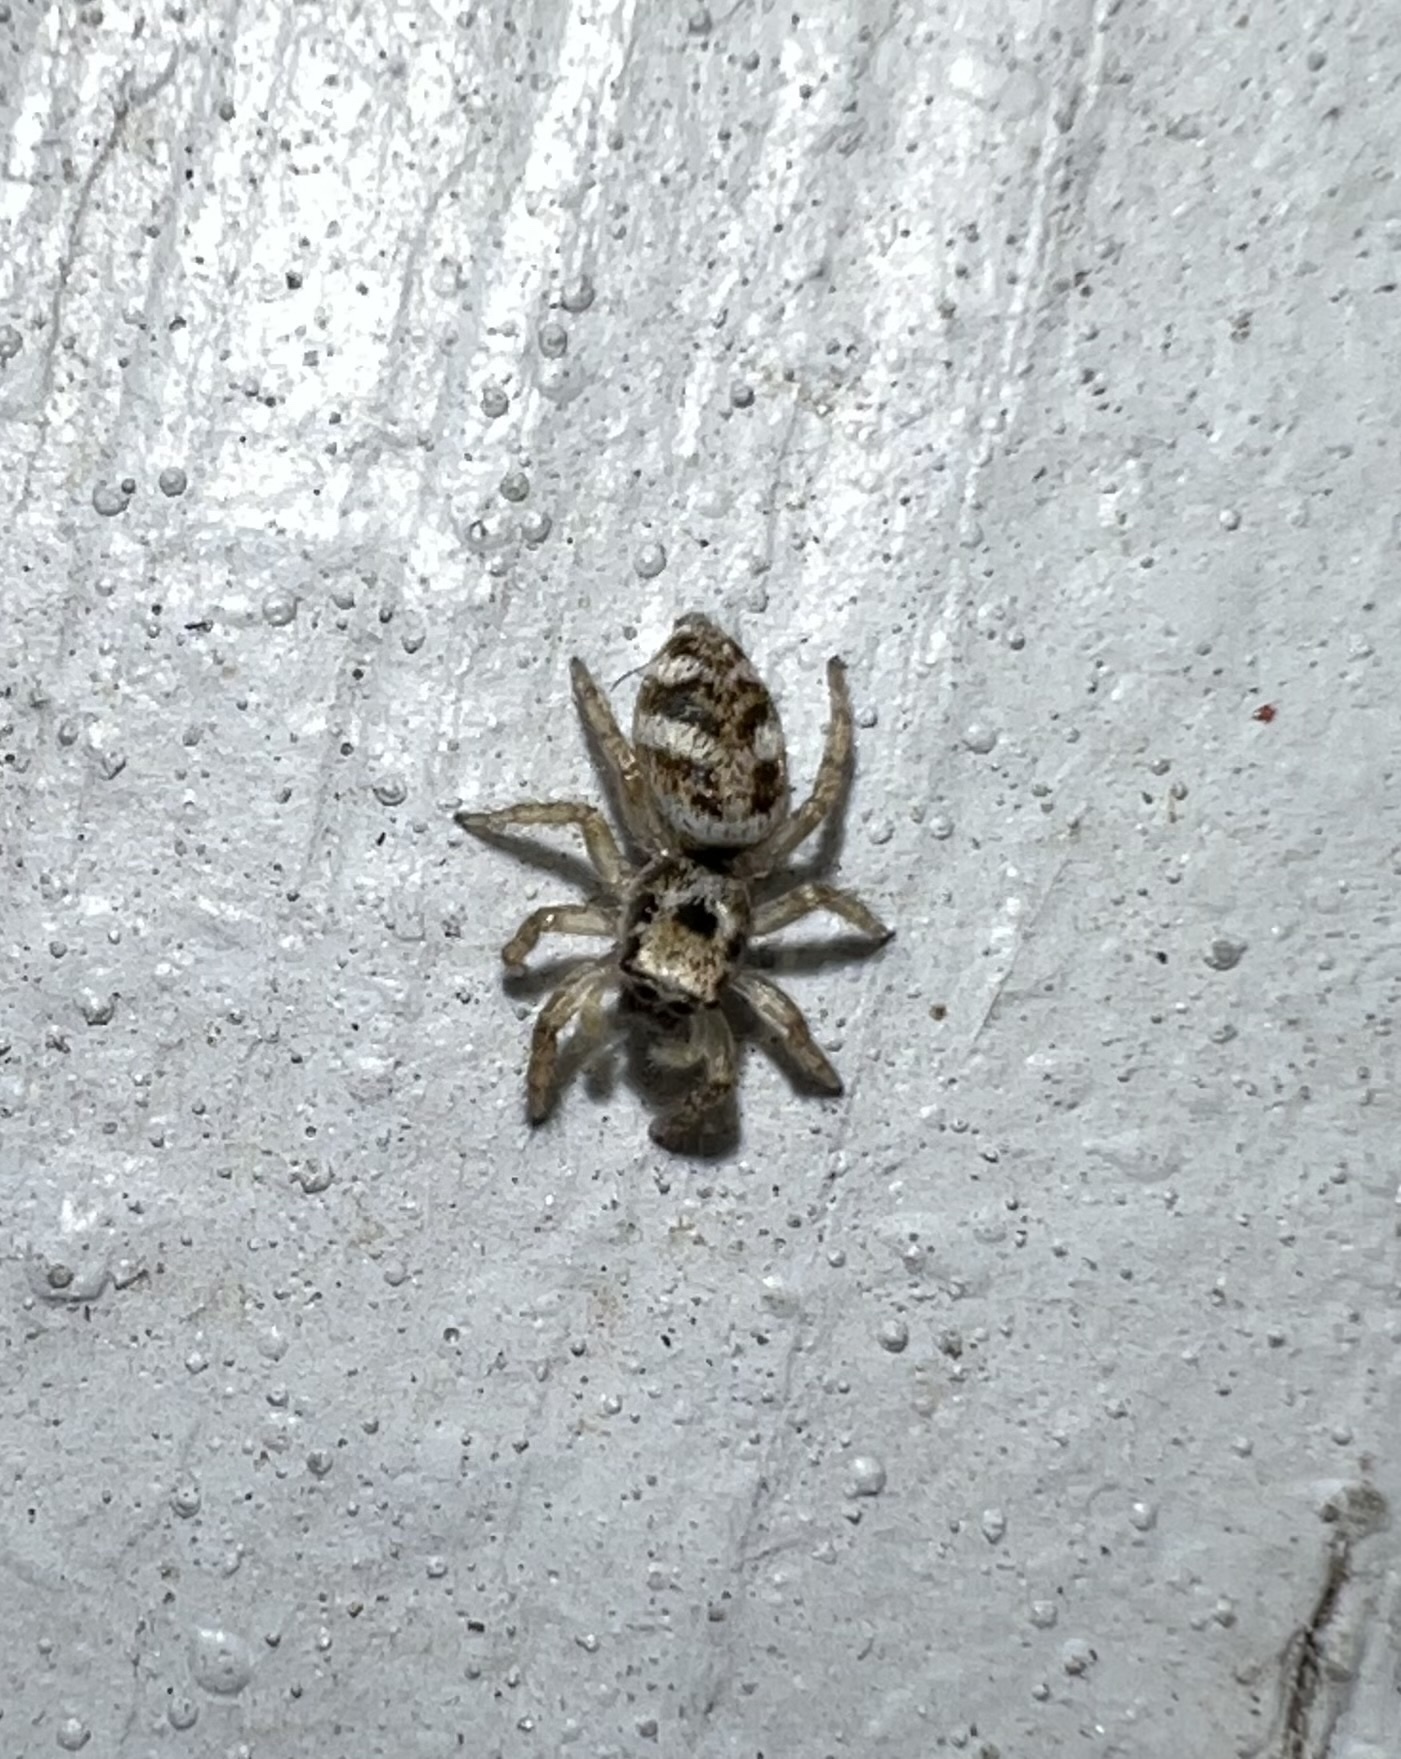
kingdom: Animalia
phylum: Arthropoda
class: Arachnida
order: Araneae
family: Salticidae
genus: Salticus
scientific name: Salticus scenicus
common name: Zebra jumper
